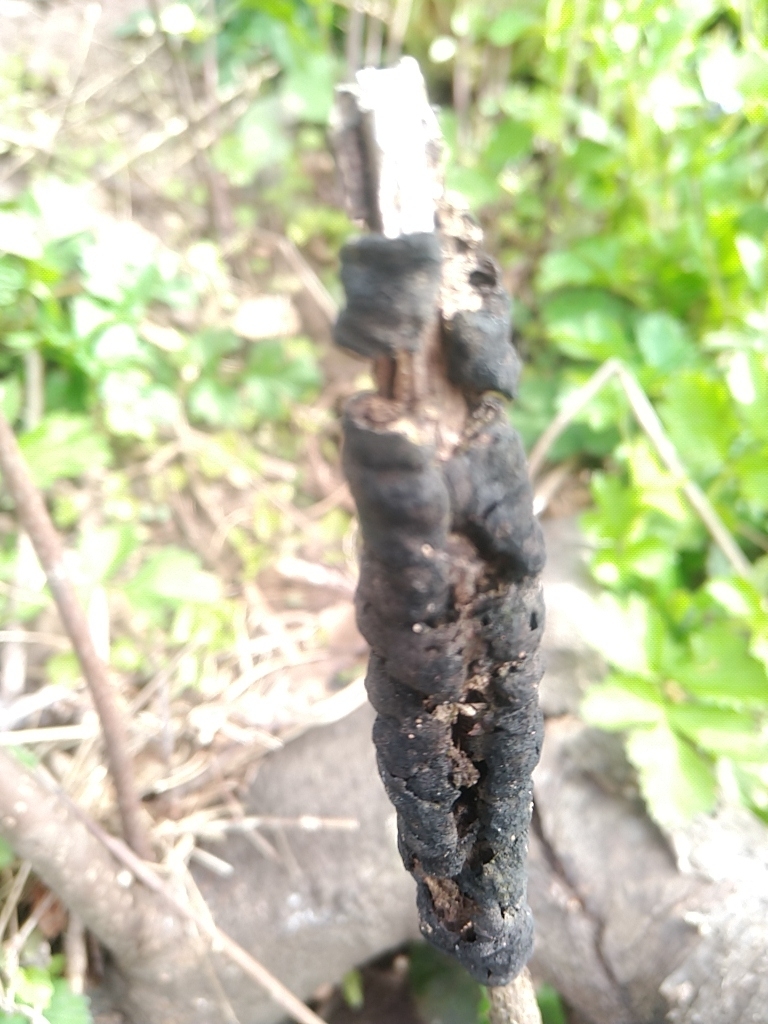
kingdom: Fungi
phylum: Ascomycota
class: Dothideomycetes
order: Venturiales
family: Venturiaceae
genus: Apiosporina
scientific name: Apiosporina morbosa
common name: Black knot
